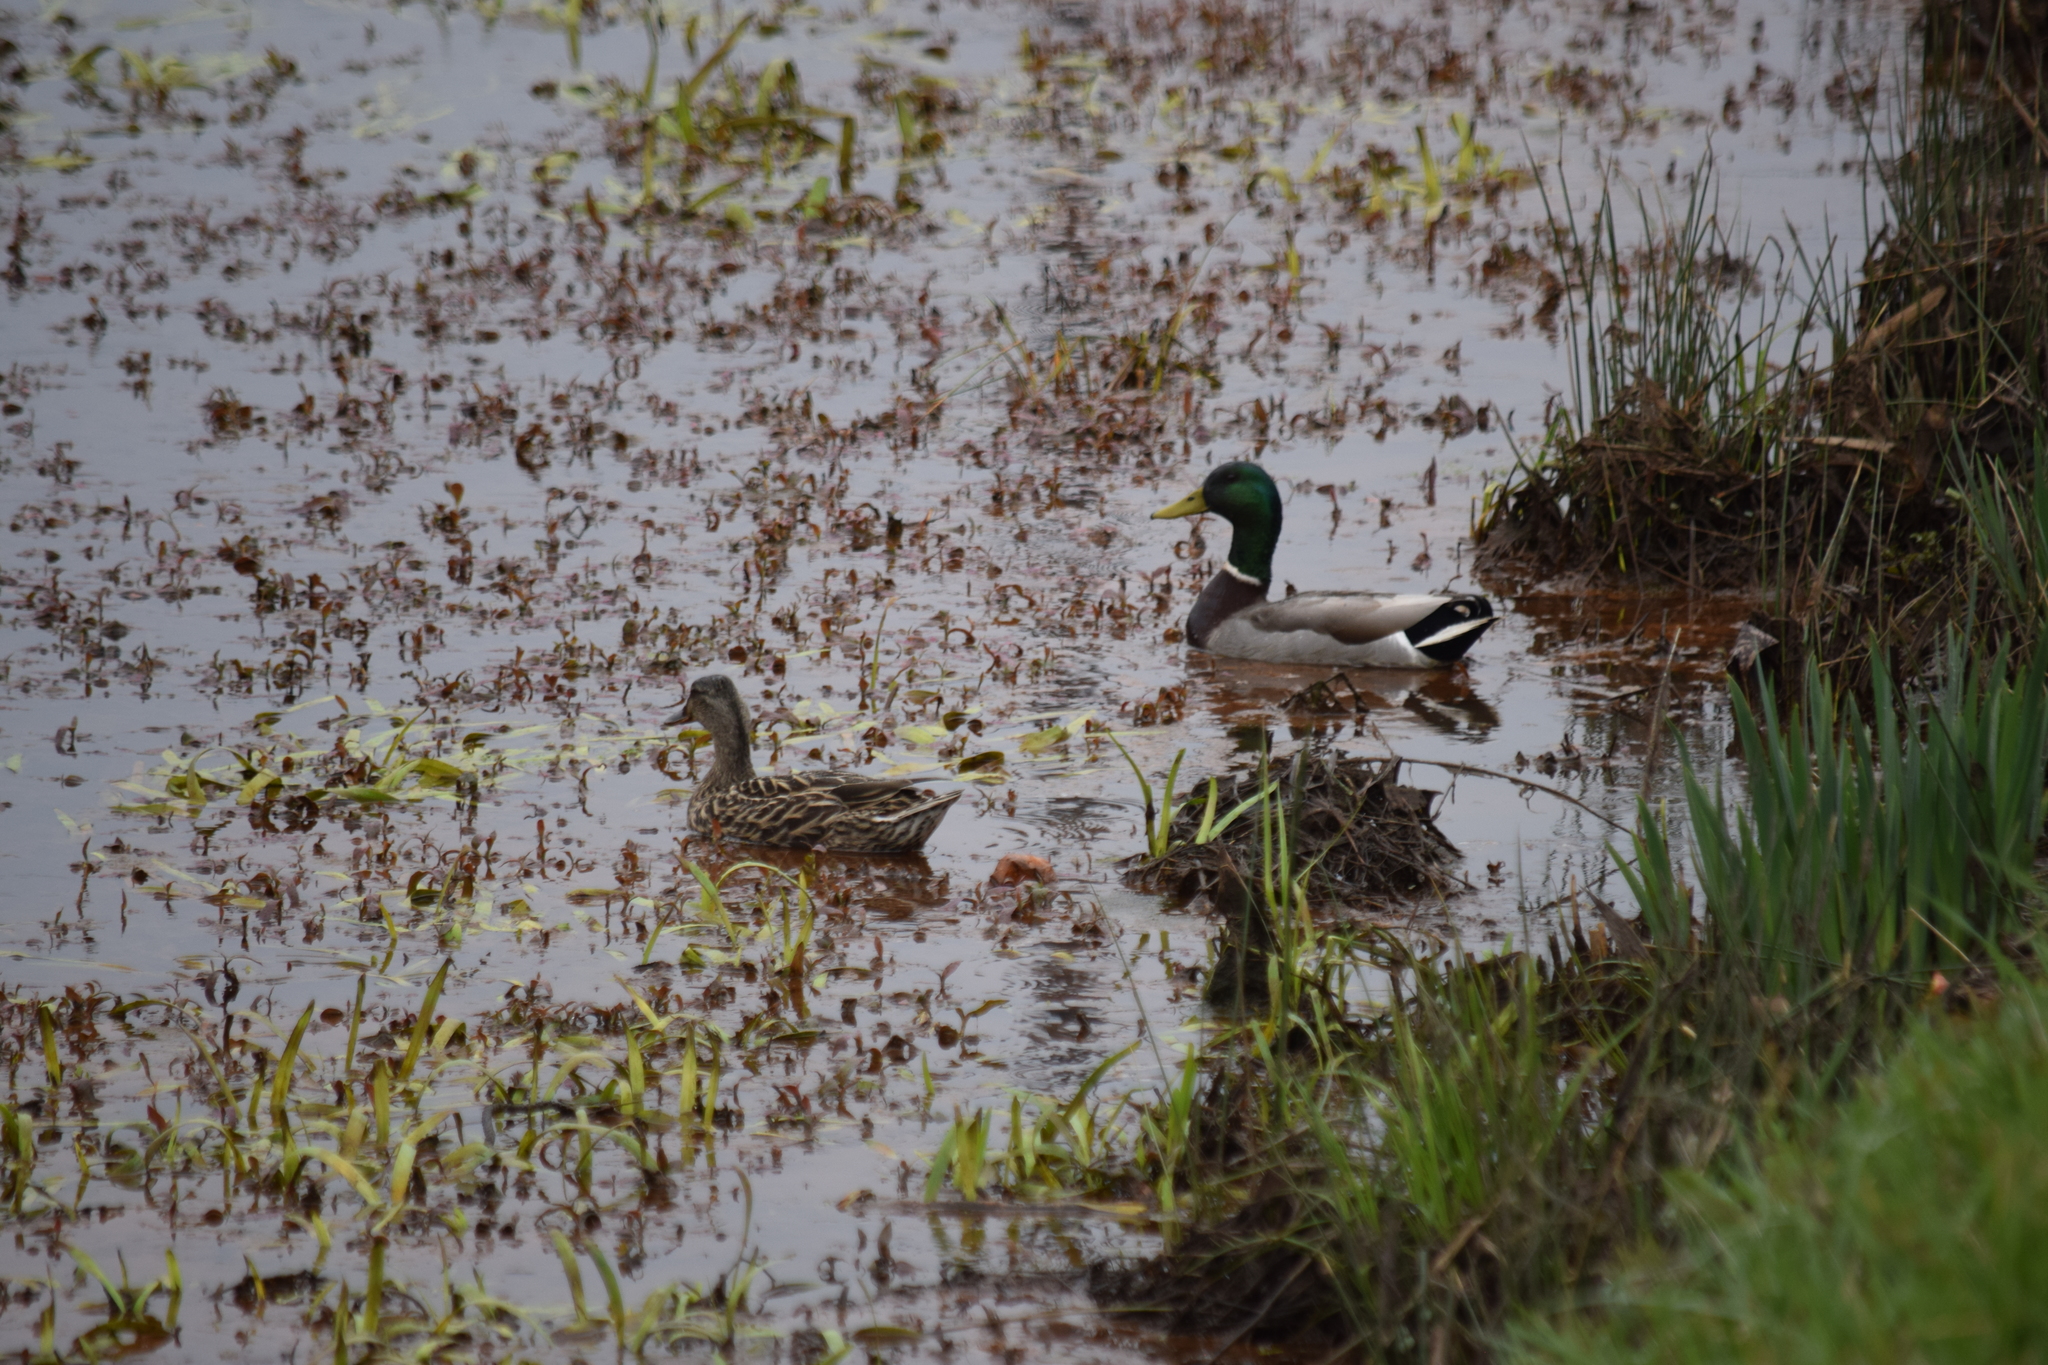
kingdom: Animalia
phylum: Chordata
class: Aves
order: Anseriformes
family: Anatidae
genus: Anas
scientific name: Anas platyrhynchos
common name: Mallard
